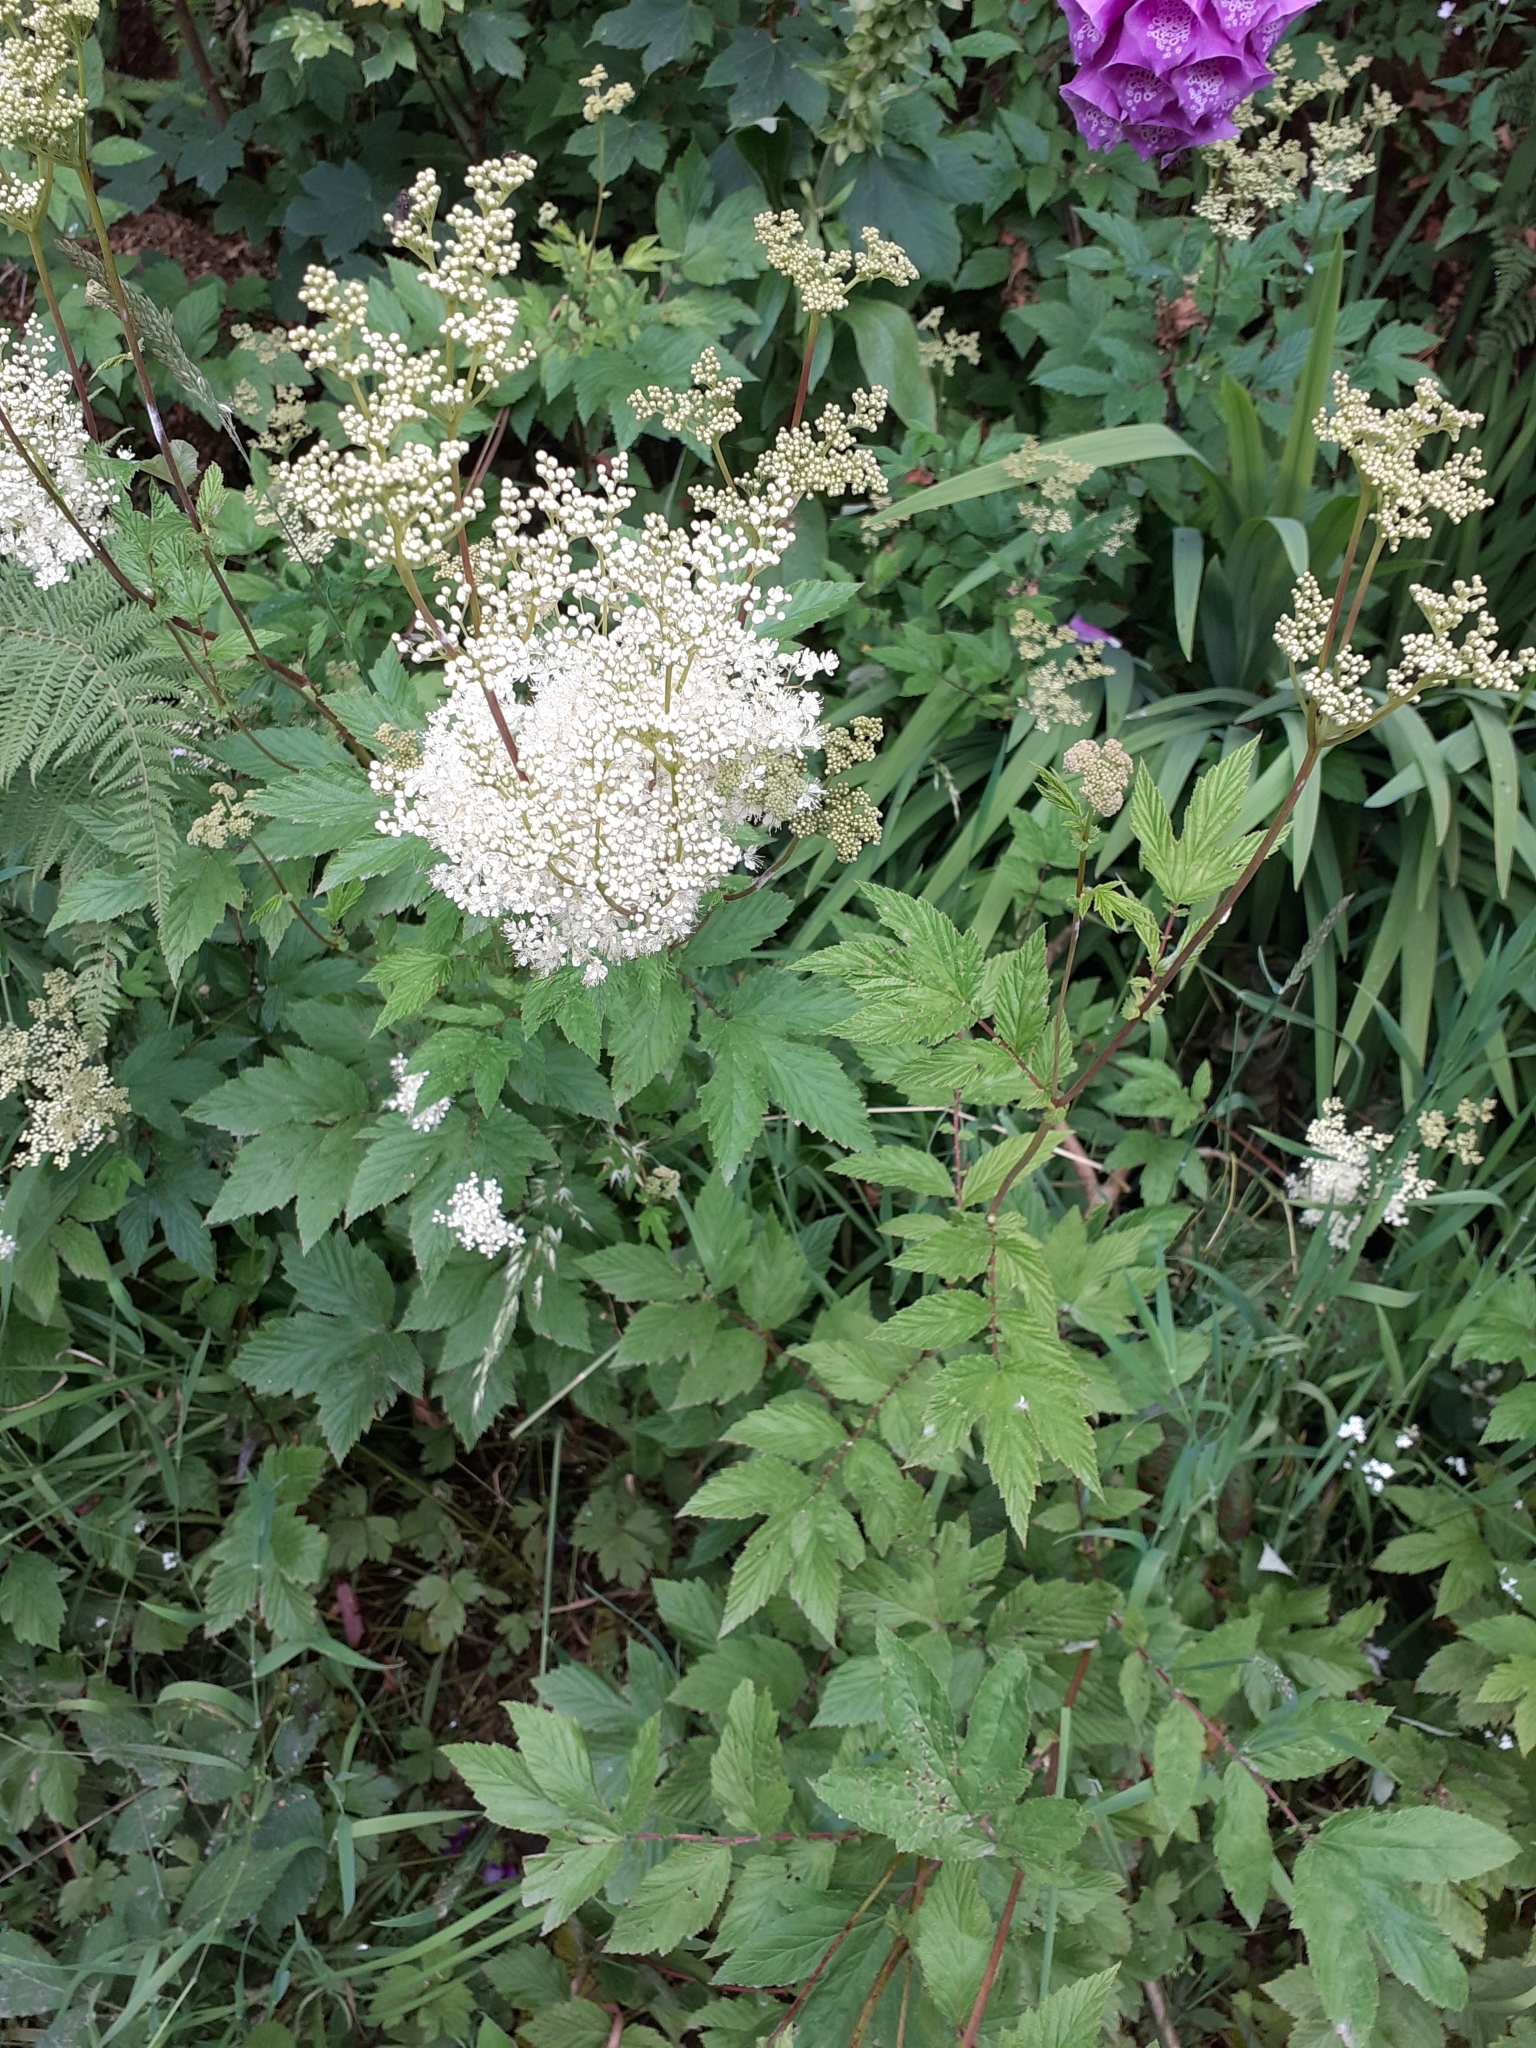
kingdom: Plantae
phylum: Tracheophyta
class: Magnoliopsida
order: Rosales
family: Rosaceae
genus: Filipendula
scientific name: Filipendula ulmaria
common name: Meadowsweet
